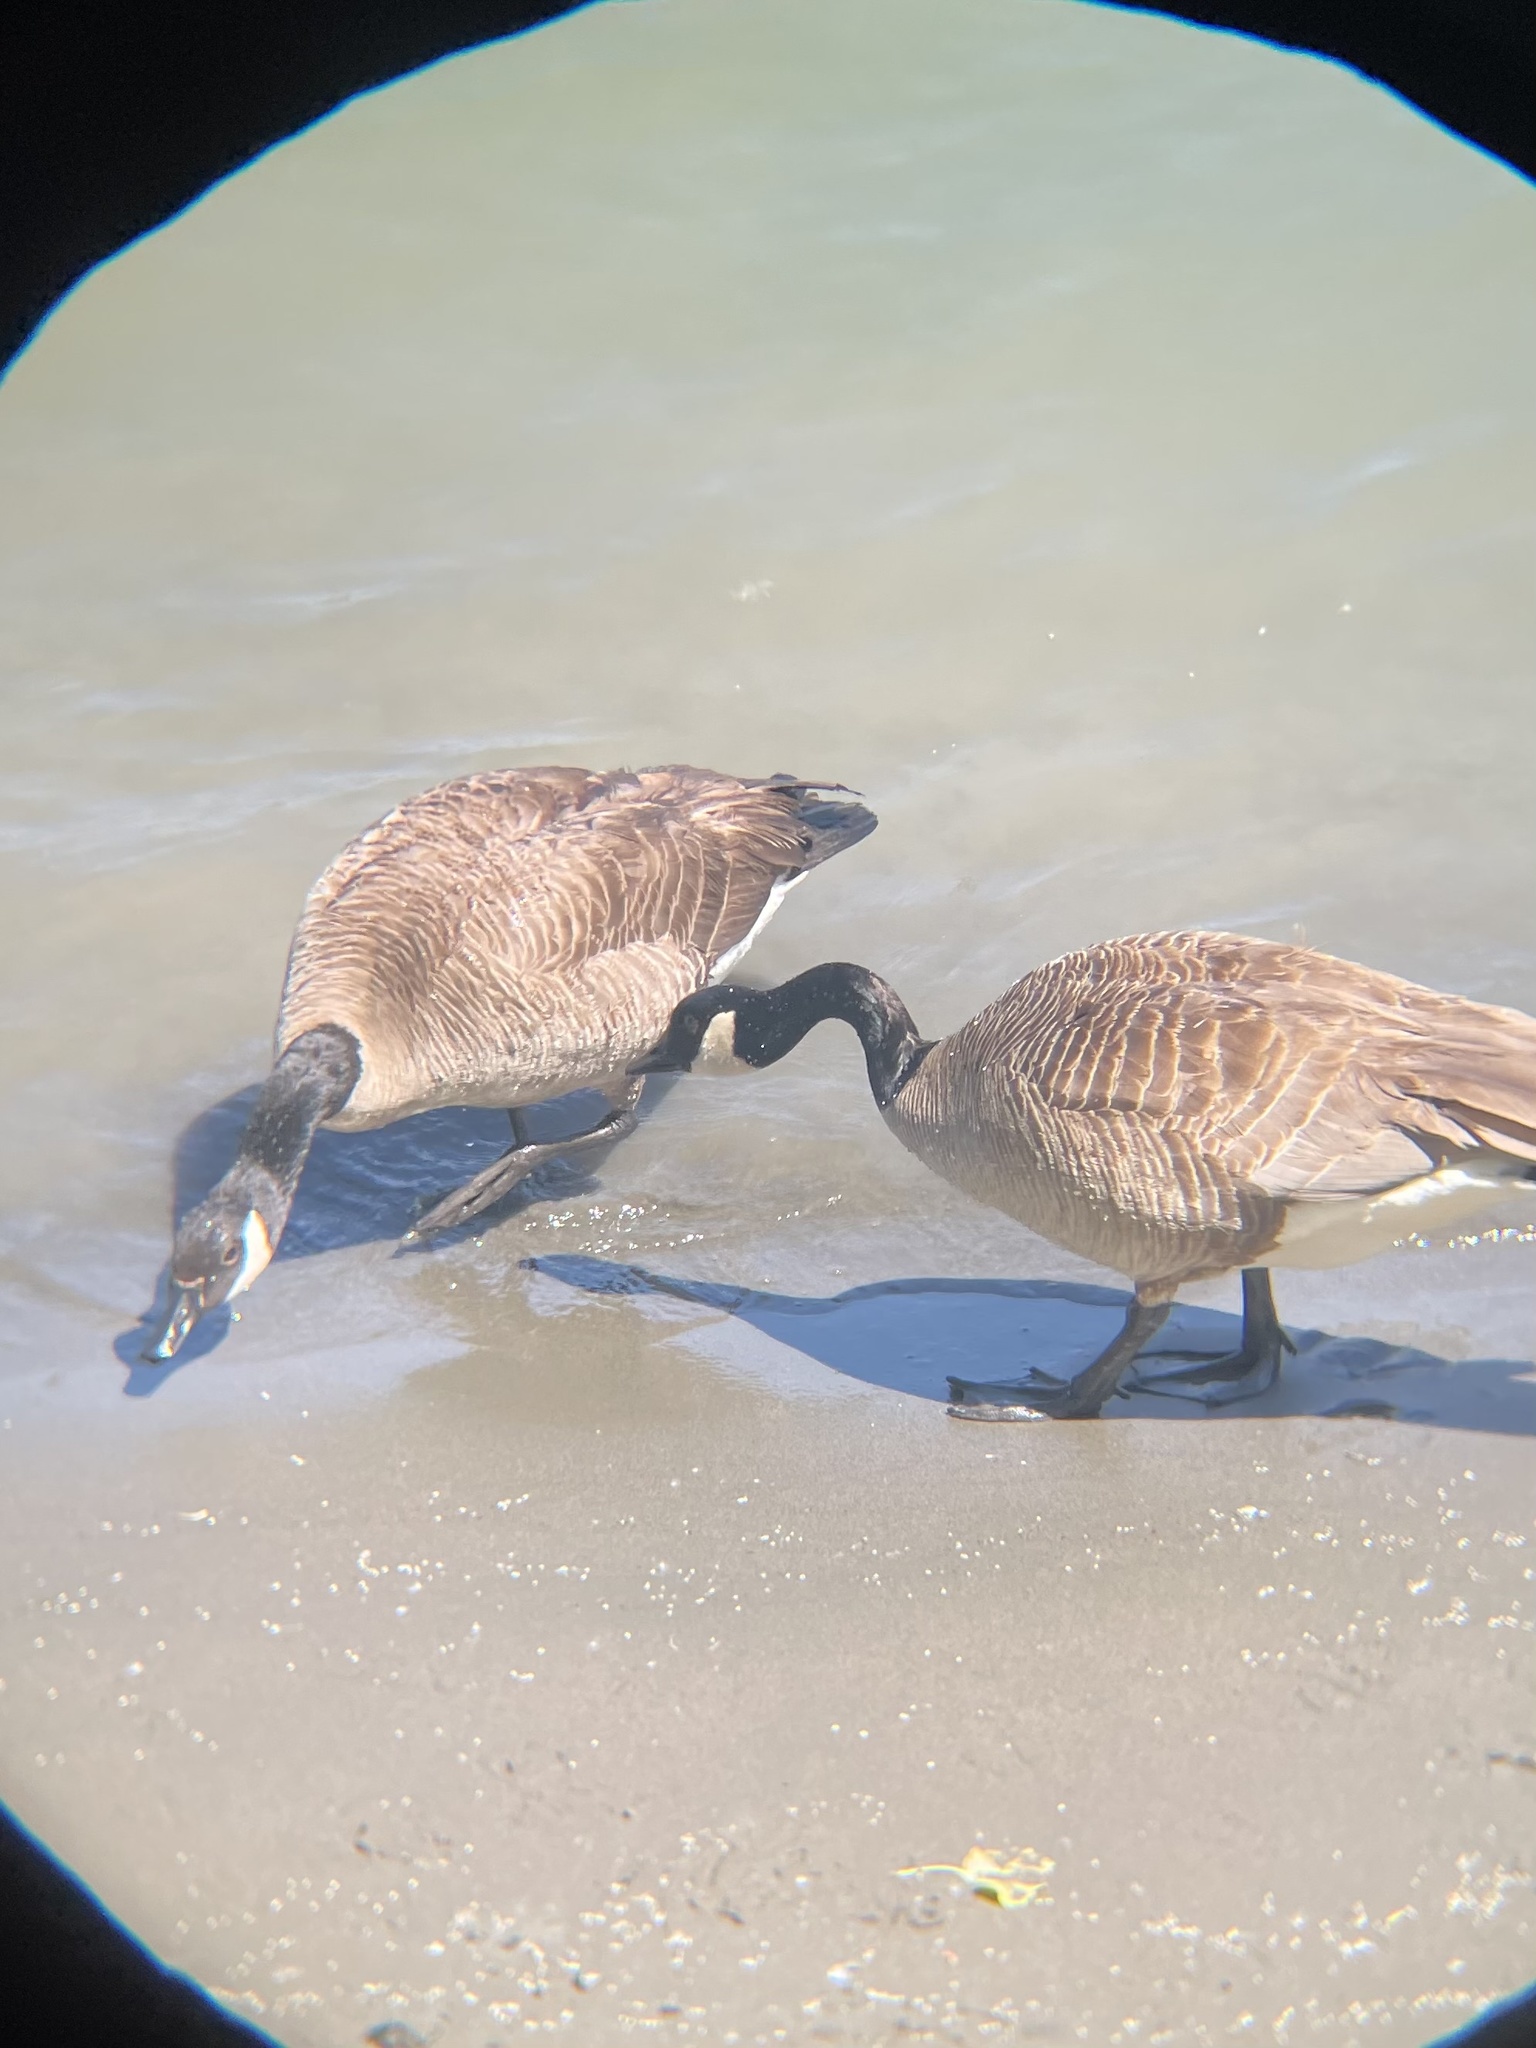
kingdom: Animalia
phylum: Chordata
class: Aves
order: Anseriformes
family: Anatidae
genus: Branta
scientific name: Branta canadensis
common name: Canada goose
